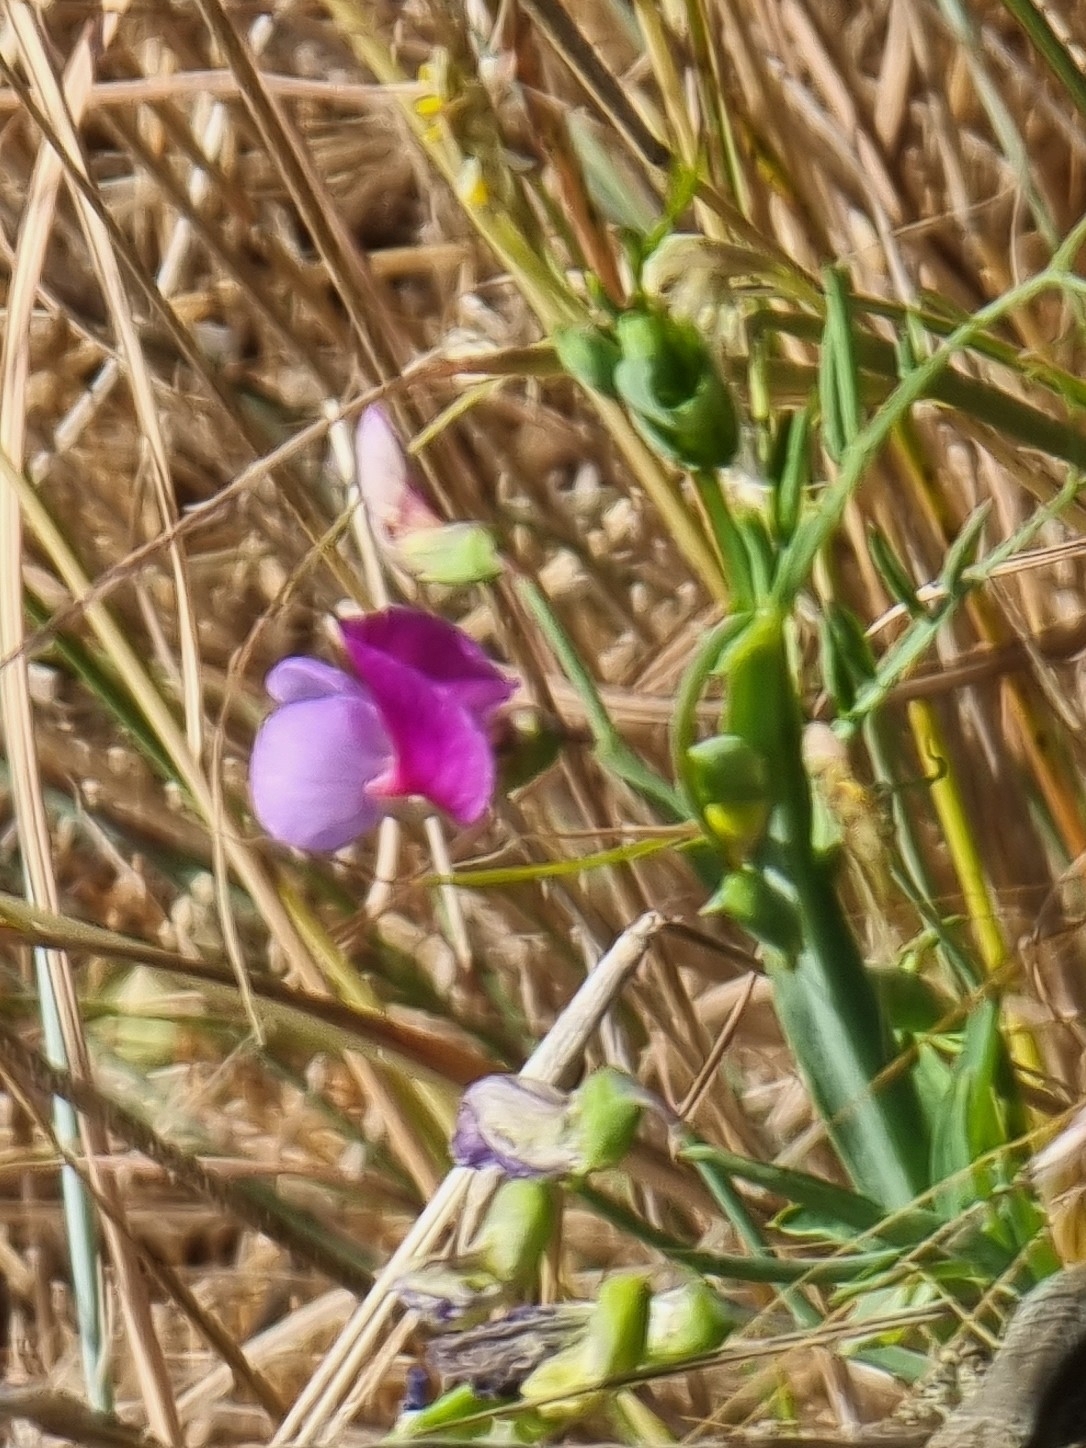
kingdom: Plantae
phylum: Tracheophyta
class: Magnoliopsida
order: Fabales
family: Fabaceae
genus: Lathyrus
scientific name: Lathyrus clymenum
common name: Spanish vetchling
